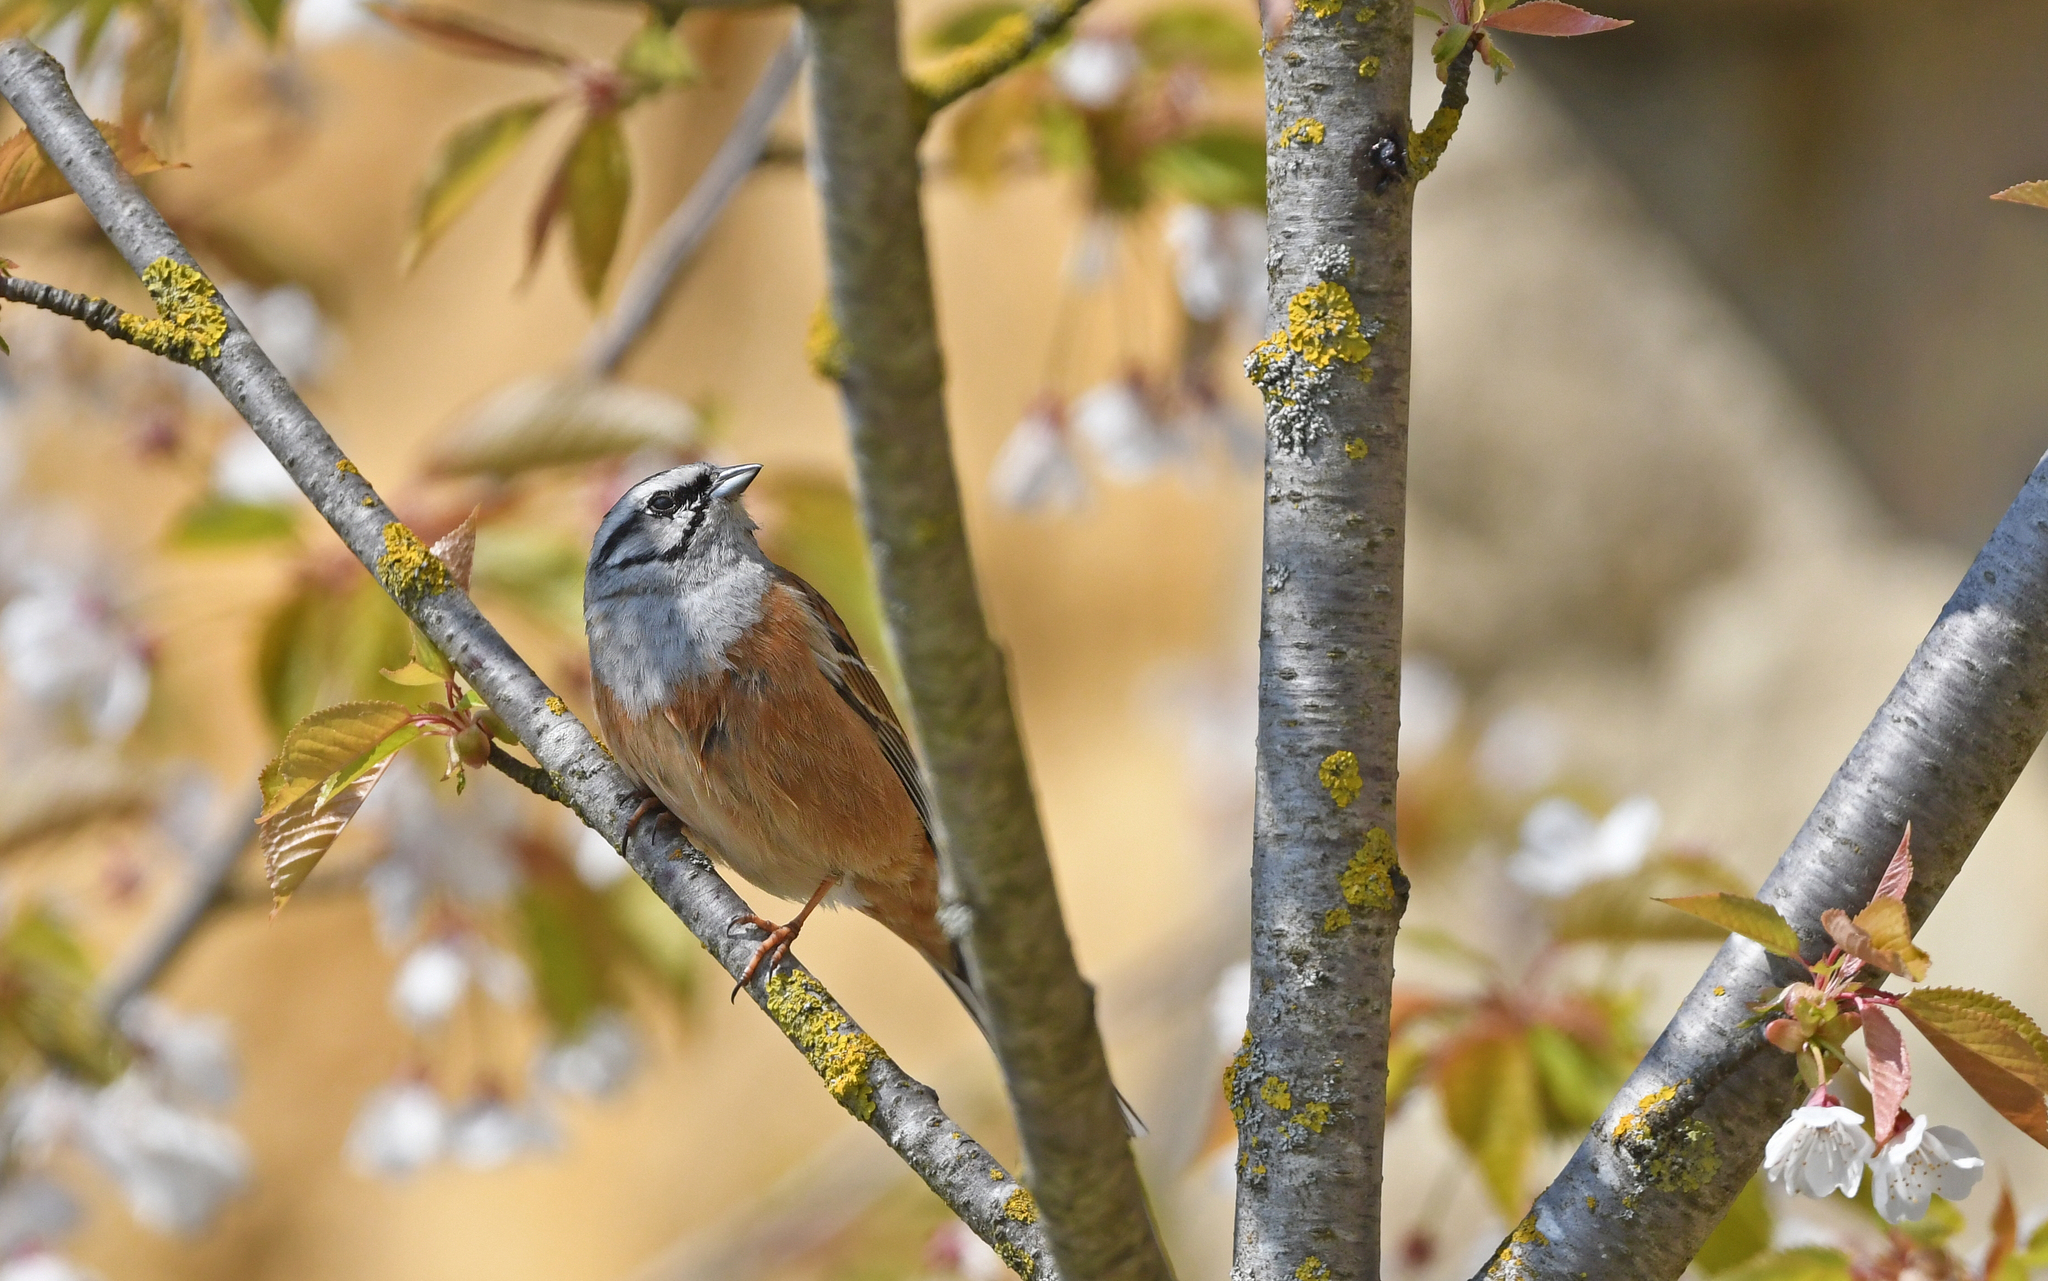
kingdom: Animalia
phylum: Chordata
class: Aves
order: Passeriformes
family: Emberizidae
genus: Emberiza
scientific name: Emberiza cia
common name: Rock bunting
